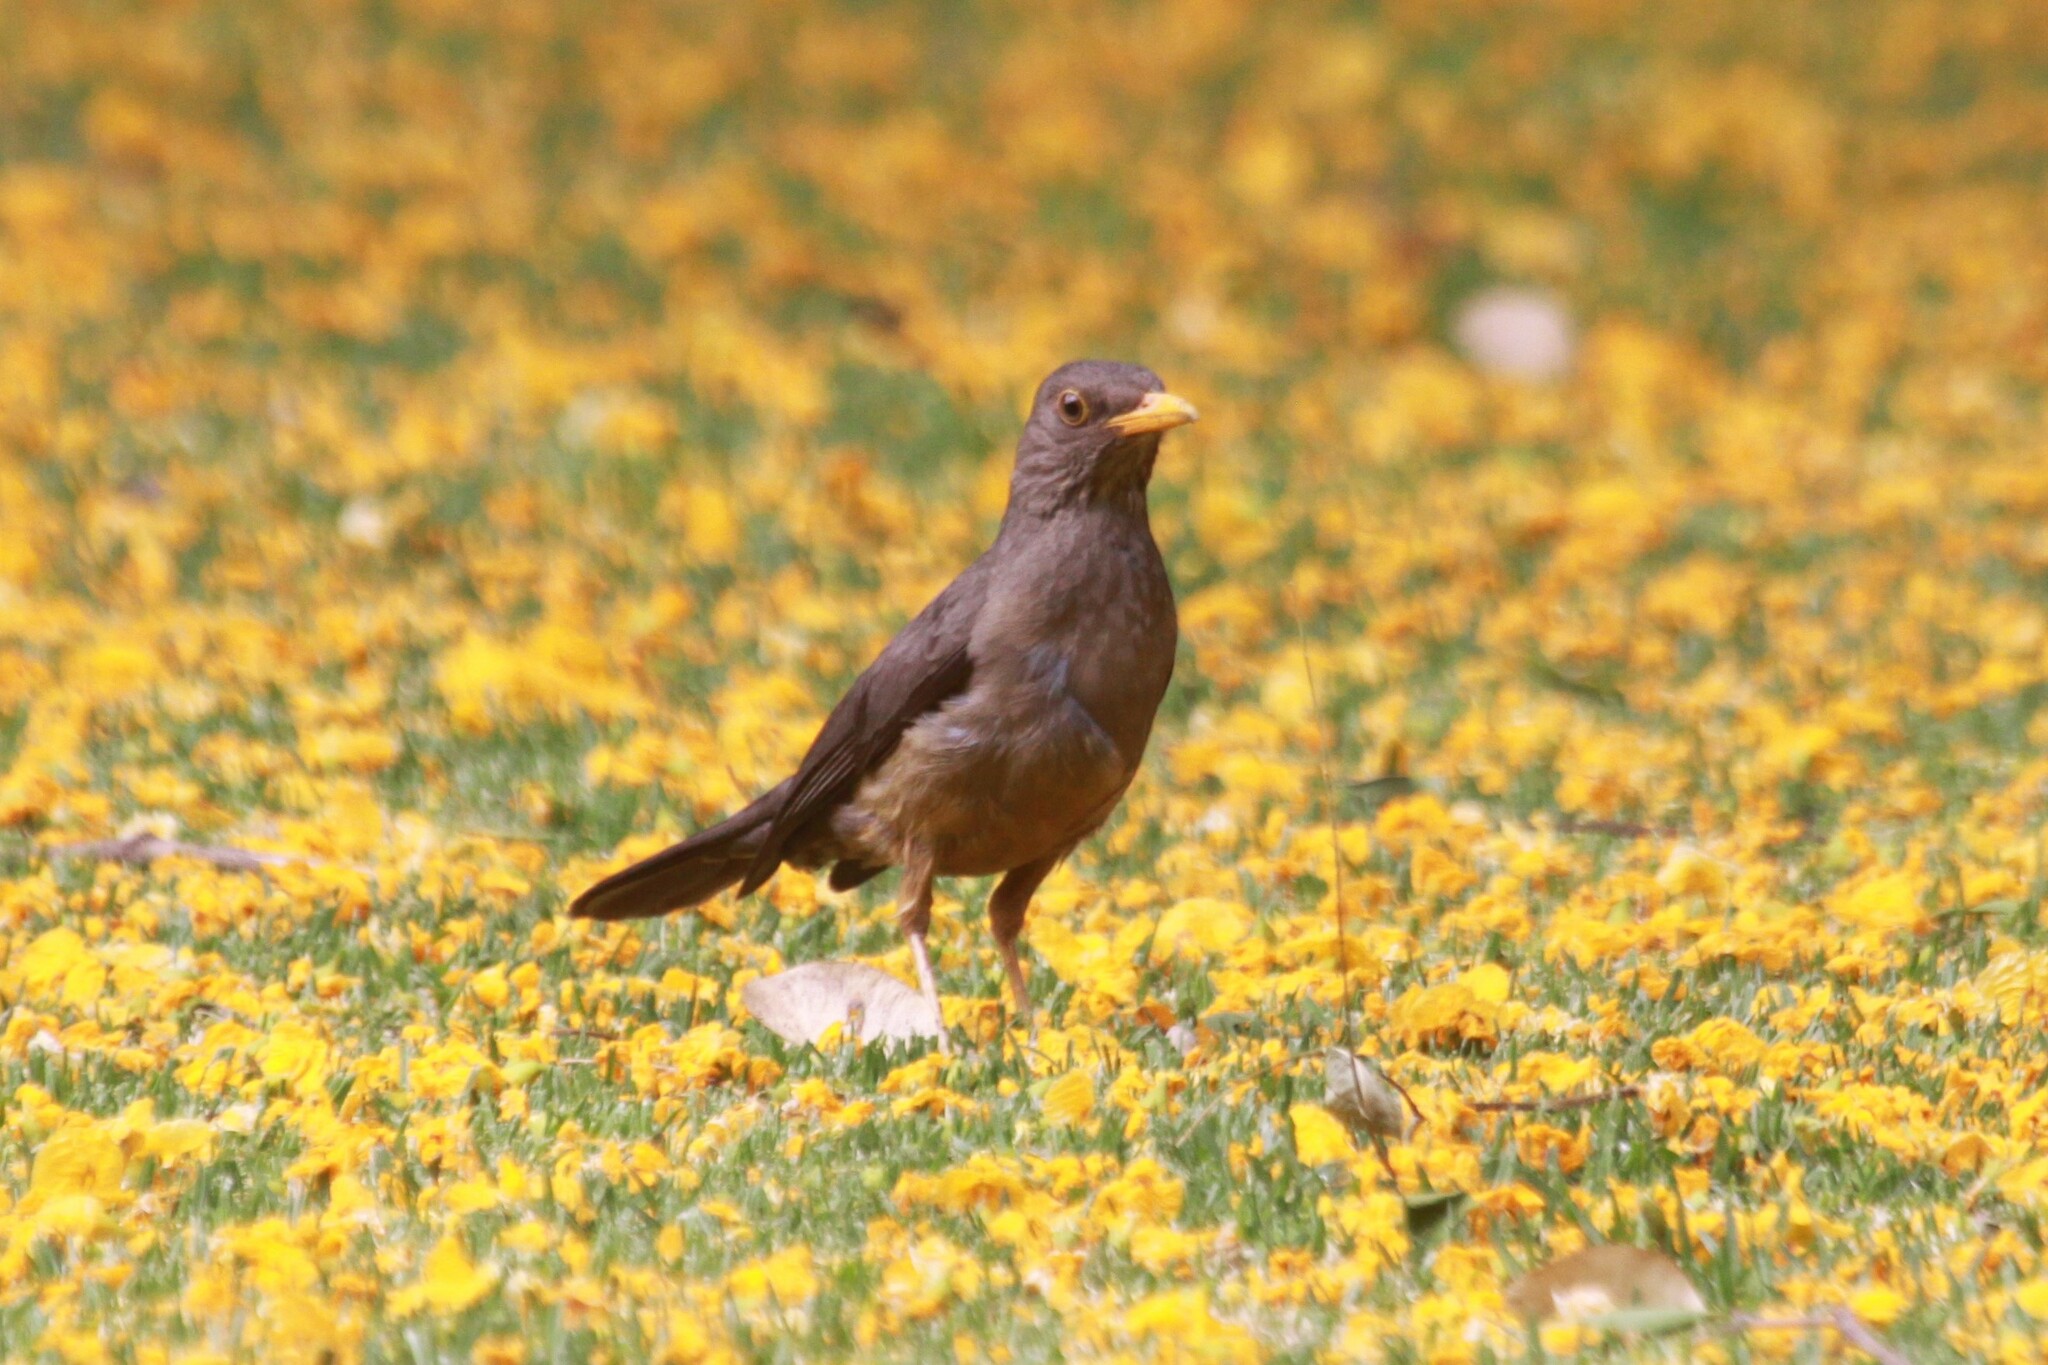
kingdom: Animalia
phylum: Chordata
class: Aves
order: Passeriformes
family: Turdidae
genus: Turdus
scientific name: Turdus smithi
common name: Karoo thrush
